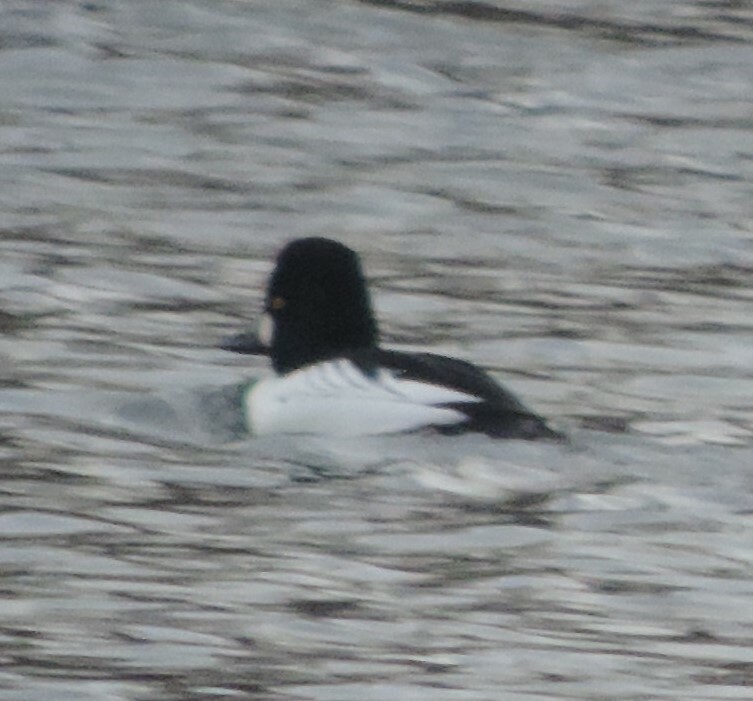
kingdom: Animalia
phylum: Chordata
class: Aves
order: Anseriformes
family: Anatidae
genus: Bucephala
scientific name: Bucephala clangula
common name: Common goldeneye
